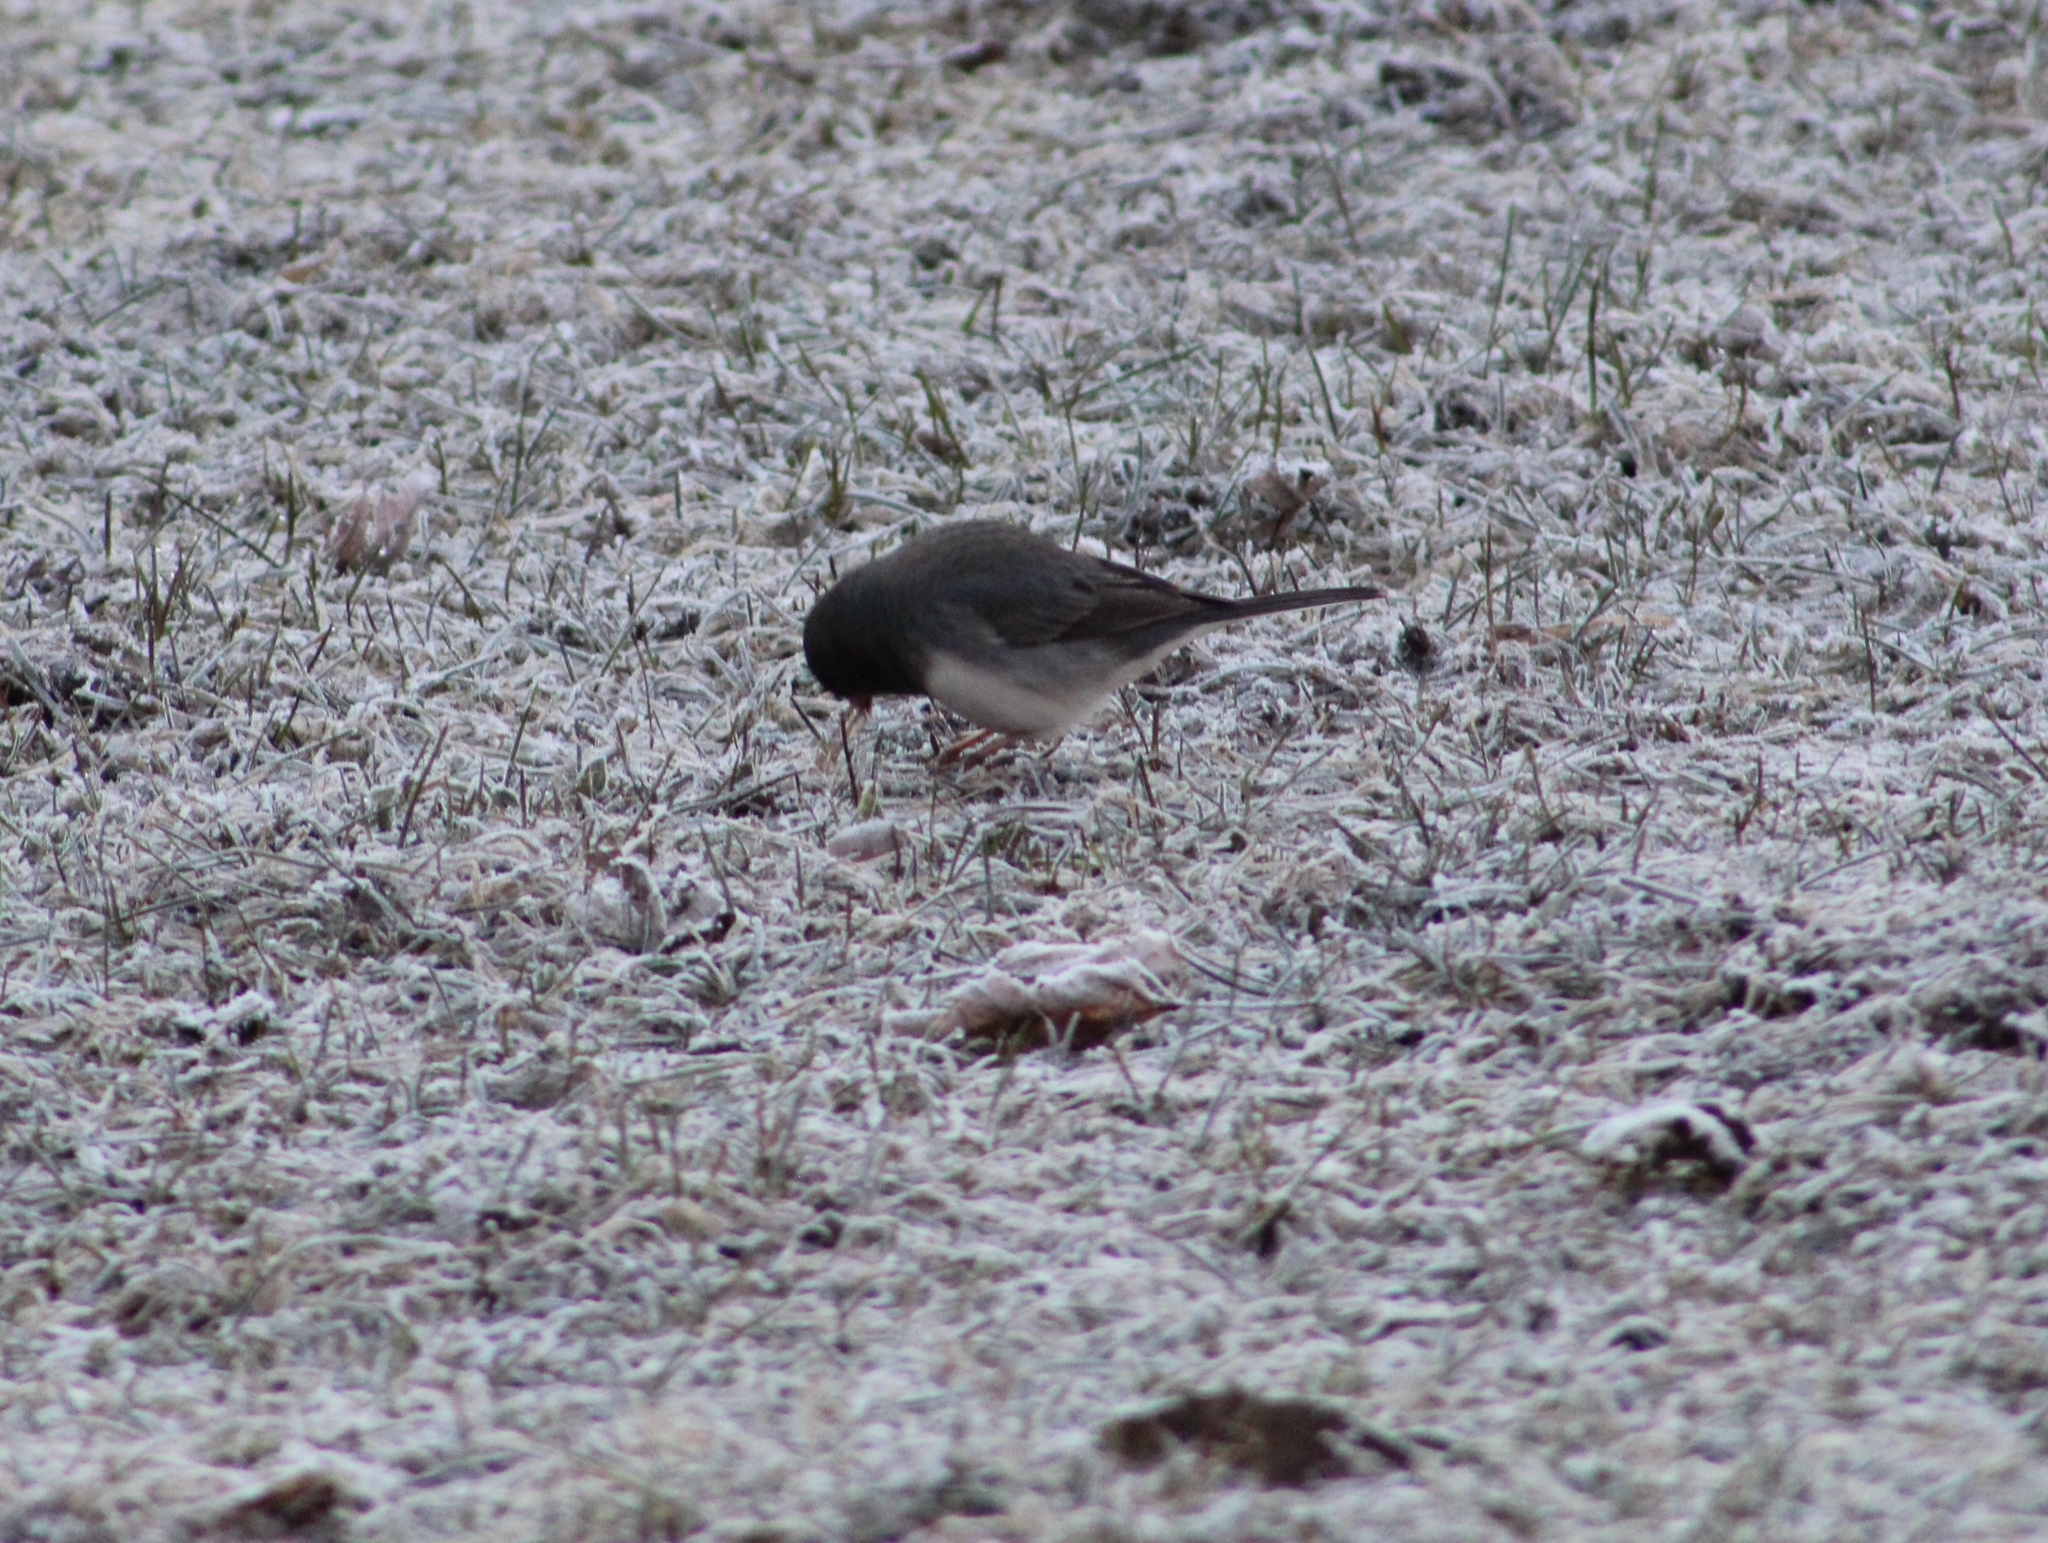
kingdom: Animalia
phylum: Chordata
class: Aves
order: Passeriformes
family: Passerellidae
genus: Junco
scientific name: Junco hyemalis
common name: Dark-eyed junco
